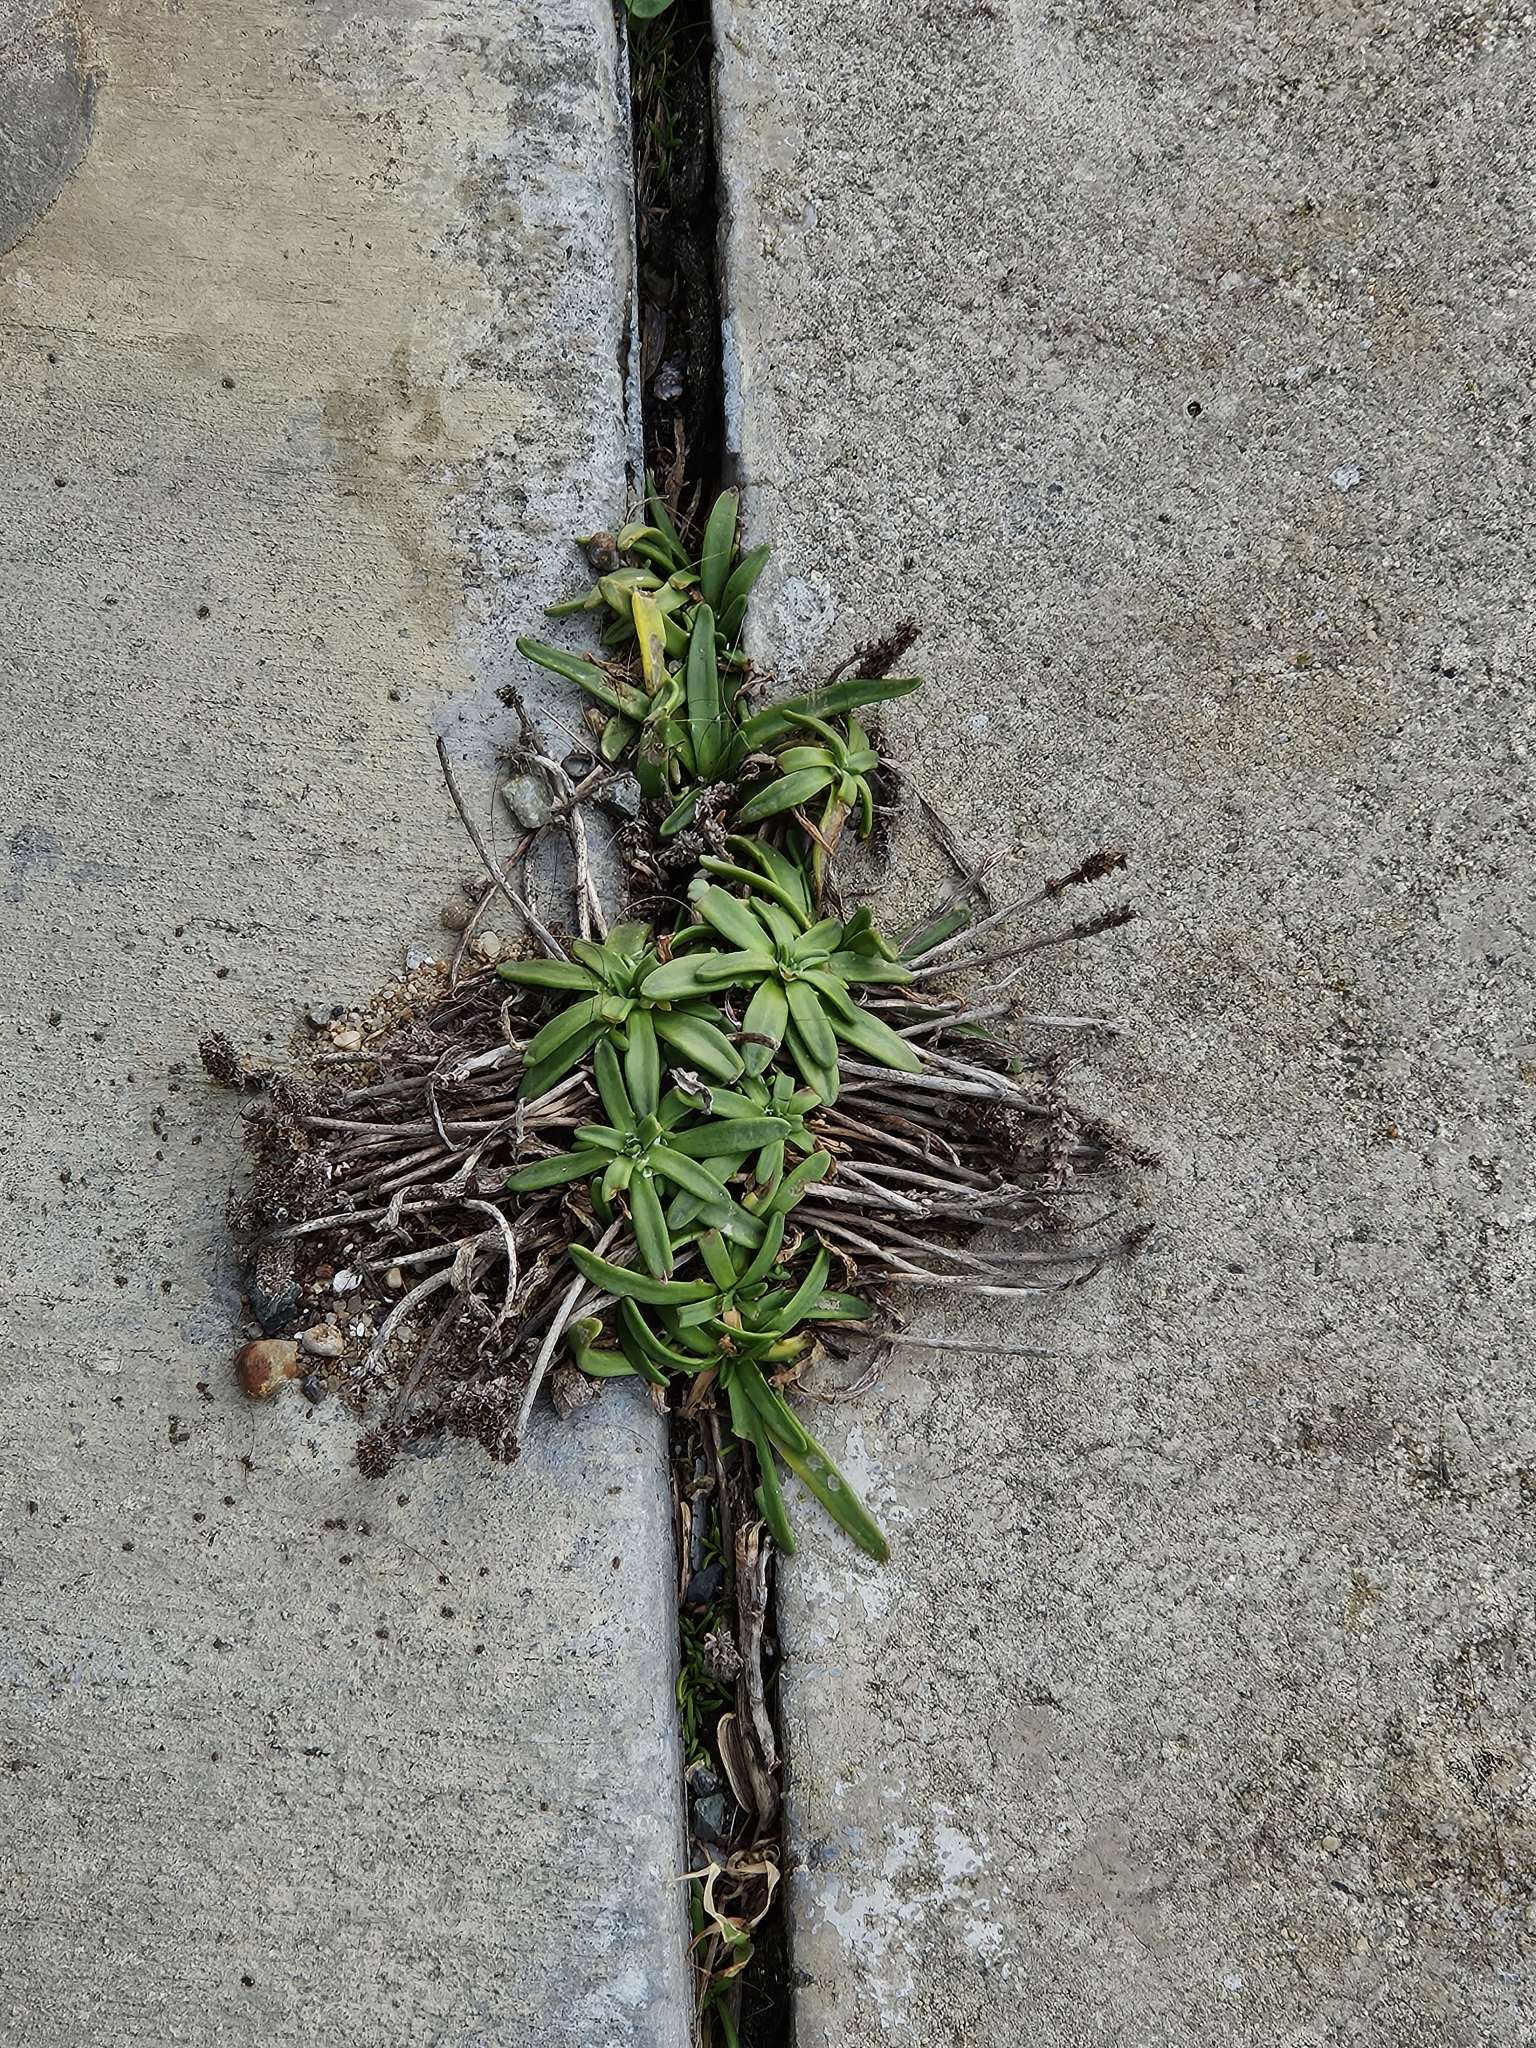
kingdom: Plantae
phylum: Tracheophyta
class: Magnoliopsida
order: Lamiales
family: Plantaginaceae
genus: Plantago
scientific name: Plantago maritima
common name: Sea plantain
